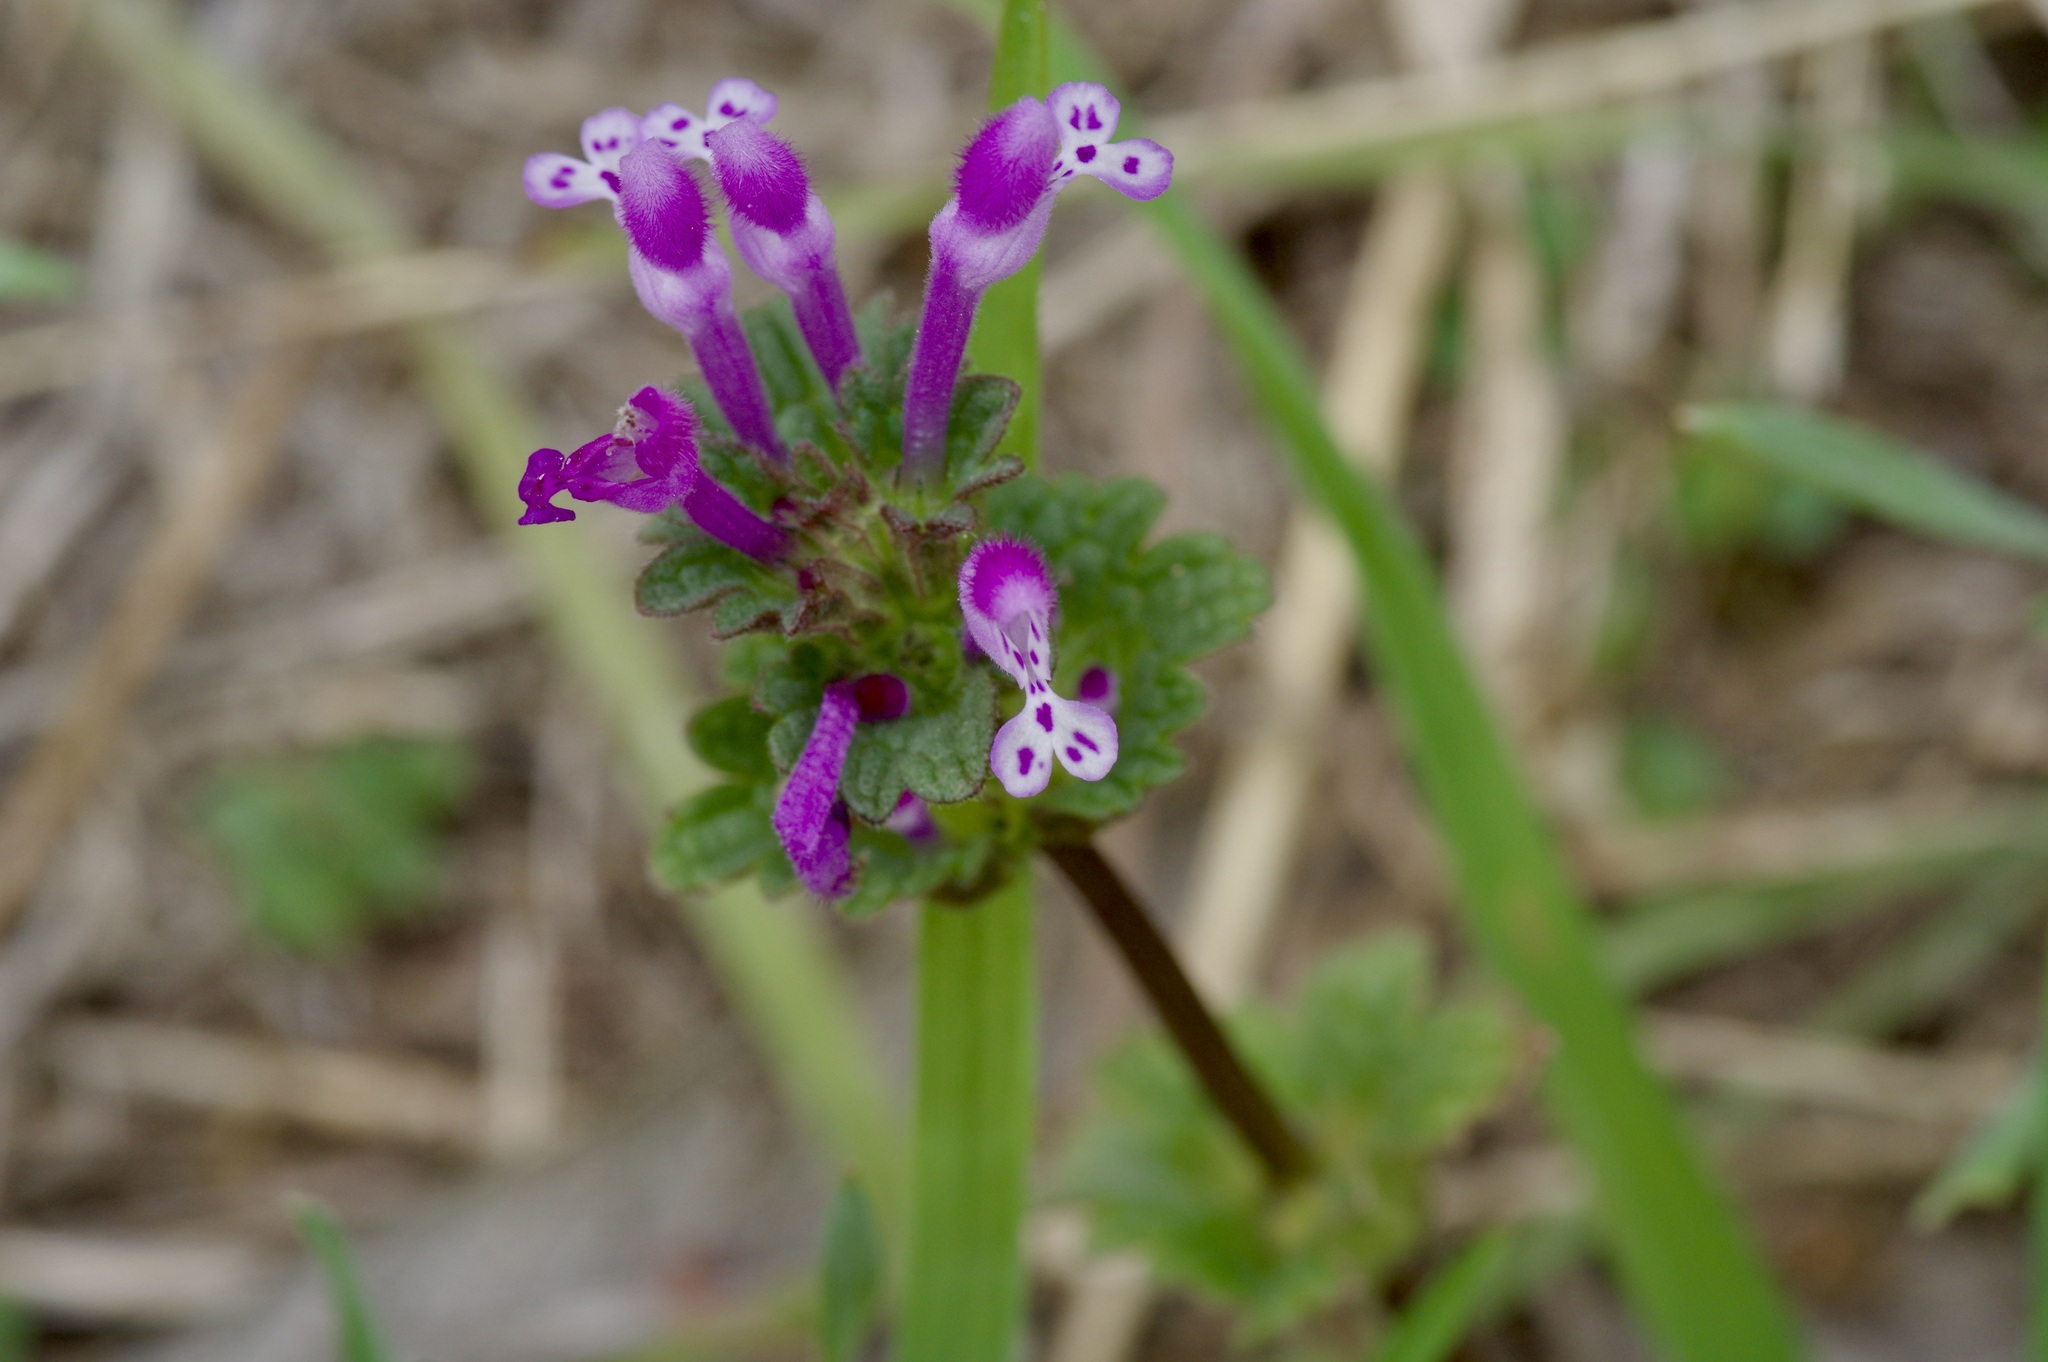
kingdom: Plantae
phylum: Tracheophyta
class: Magnoliopsida
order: Lamiales
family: Lamiaceae
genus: Lamium
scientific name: Lamium amplexicaule
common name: Henbit dead-nettle
